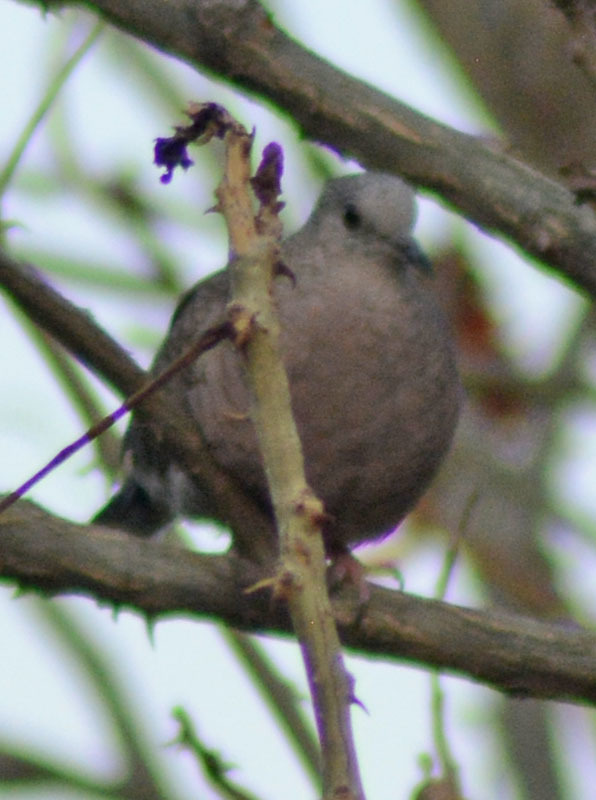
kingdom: Animalia
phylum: Chordata
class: Aves
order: Columbiformes
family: Columbidae
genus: Columbina
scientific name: Columbina inca
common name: Inca dove
